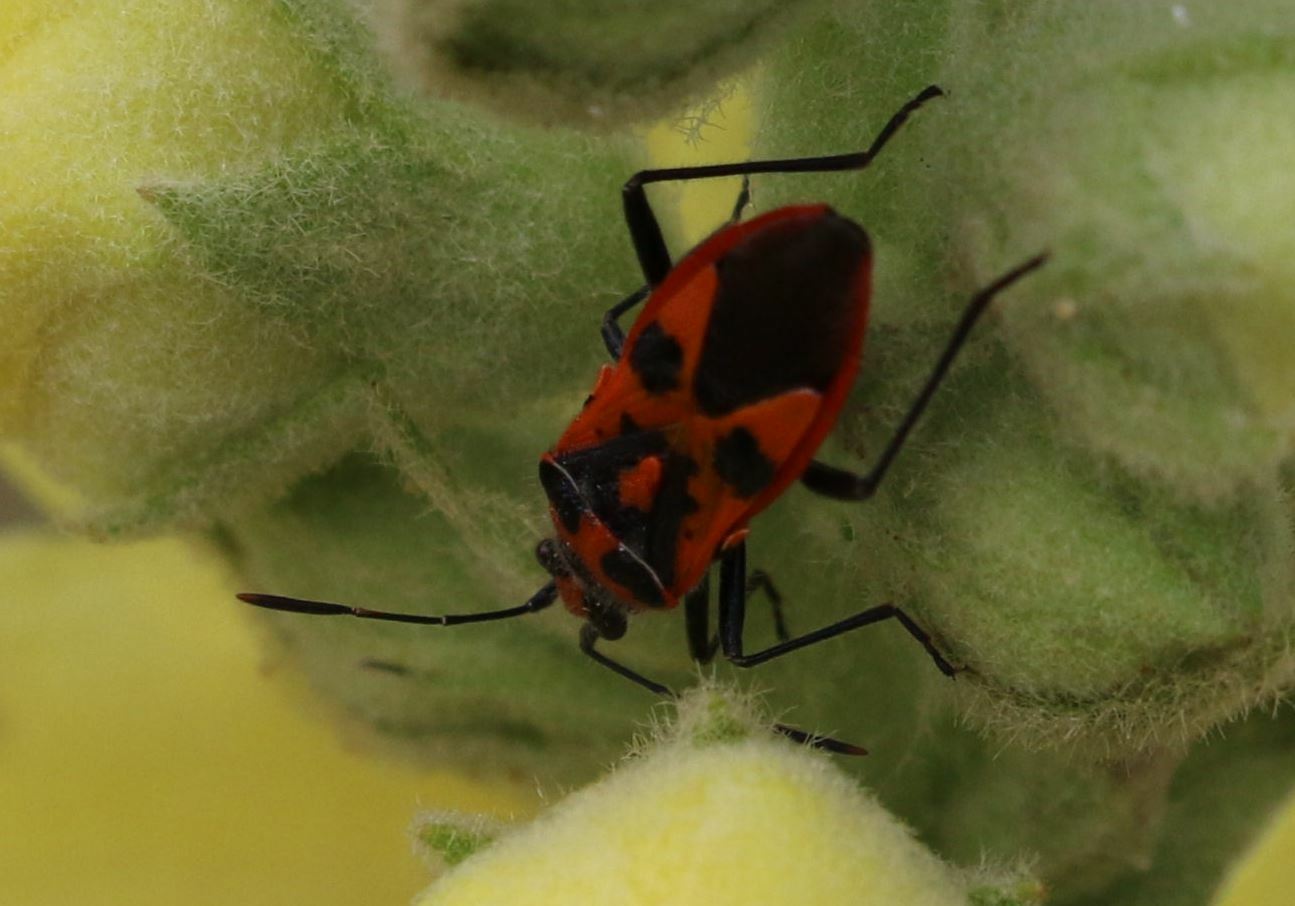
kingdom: Animalia
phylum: Arthropoda
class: Insecta
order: Hemiptera
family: Rhopalidae
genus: Corizus
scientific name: Corizus hyoscyami
